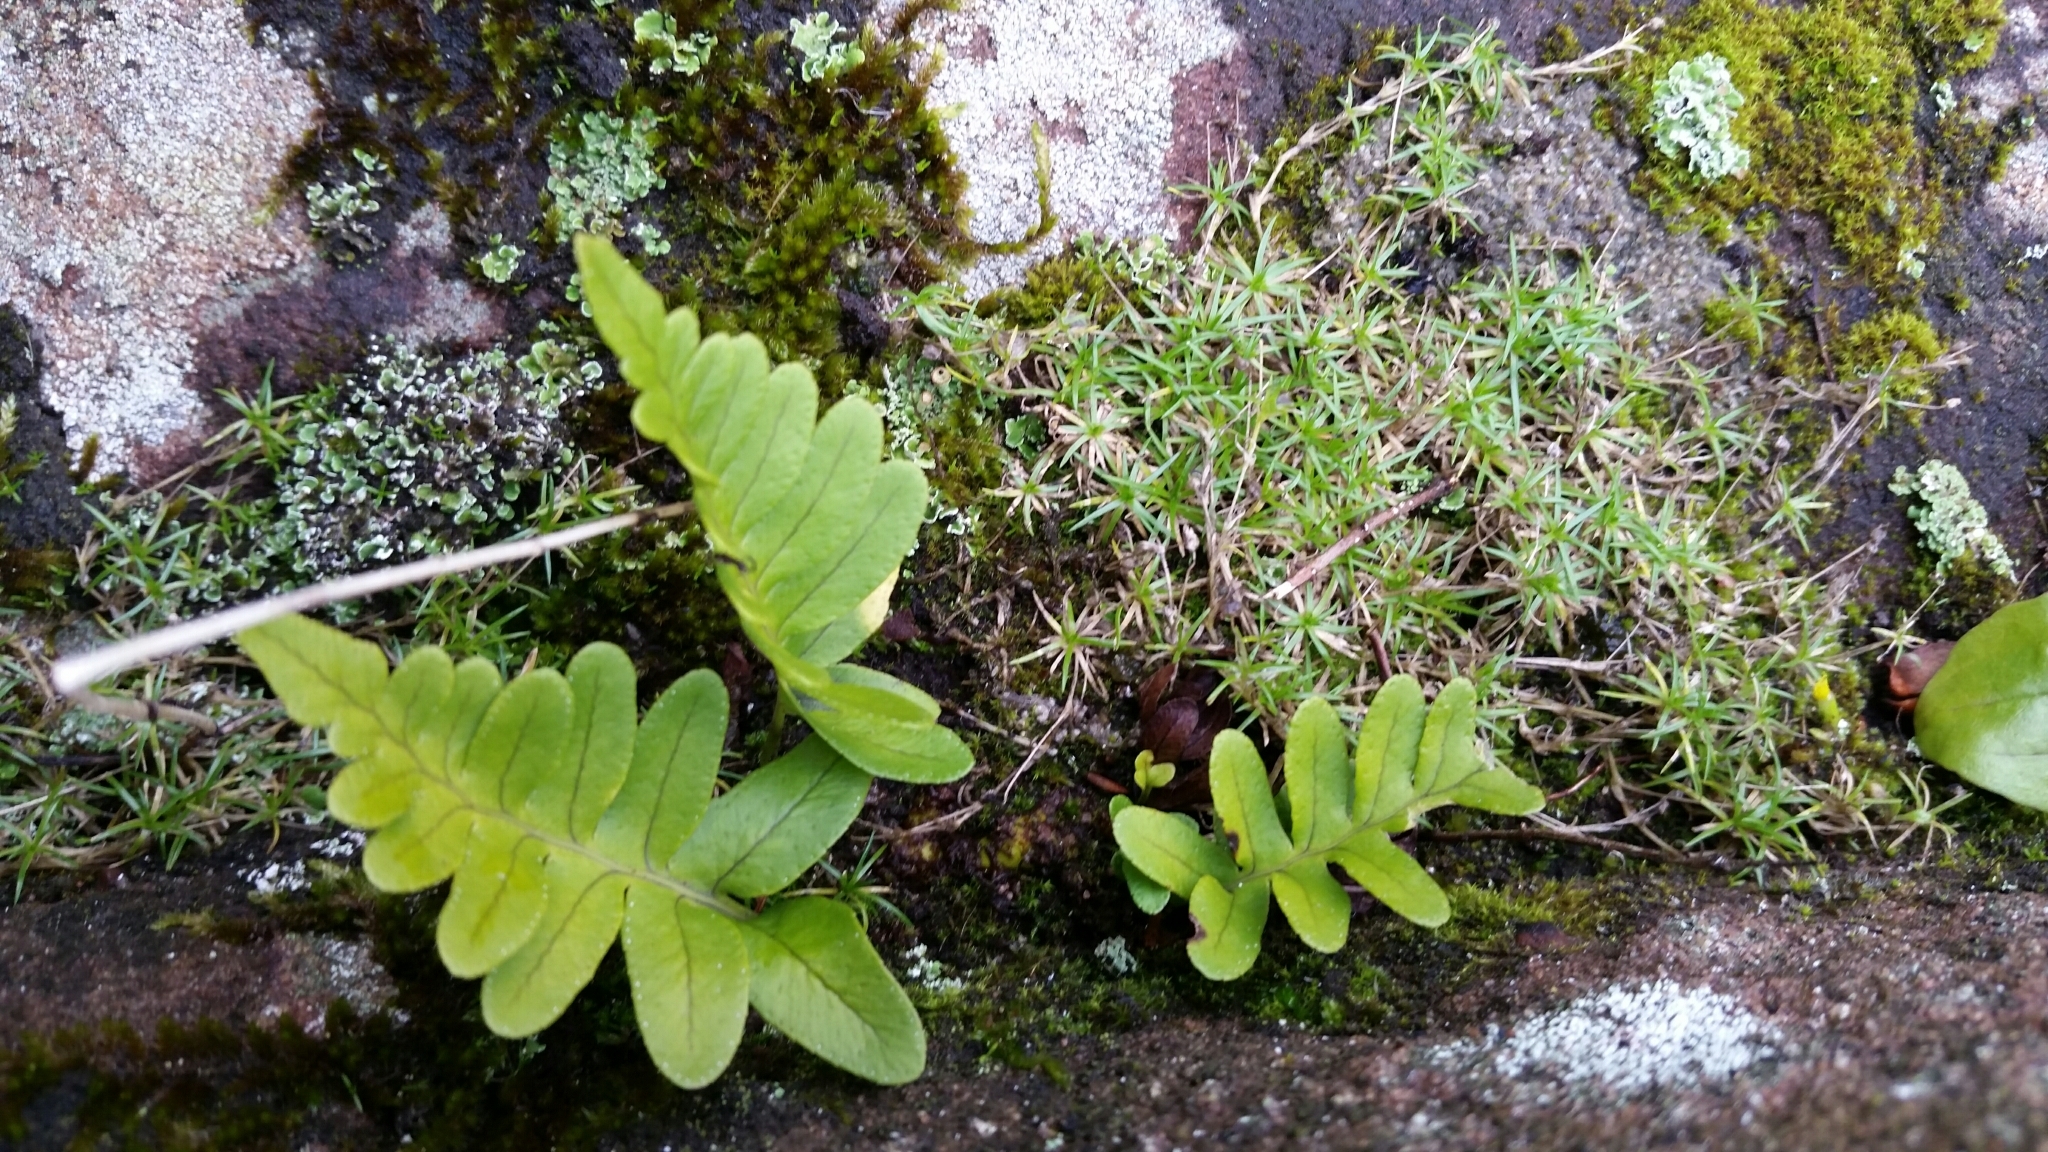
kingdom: Plantae
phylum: Tracheophyta
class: Polypodiopsida
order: Polypodiales
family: Polypodiaceae
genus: Polypodium
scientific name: Polypodium vulgare
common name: Common polypody
